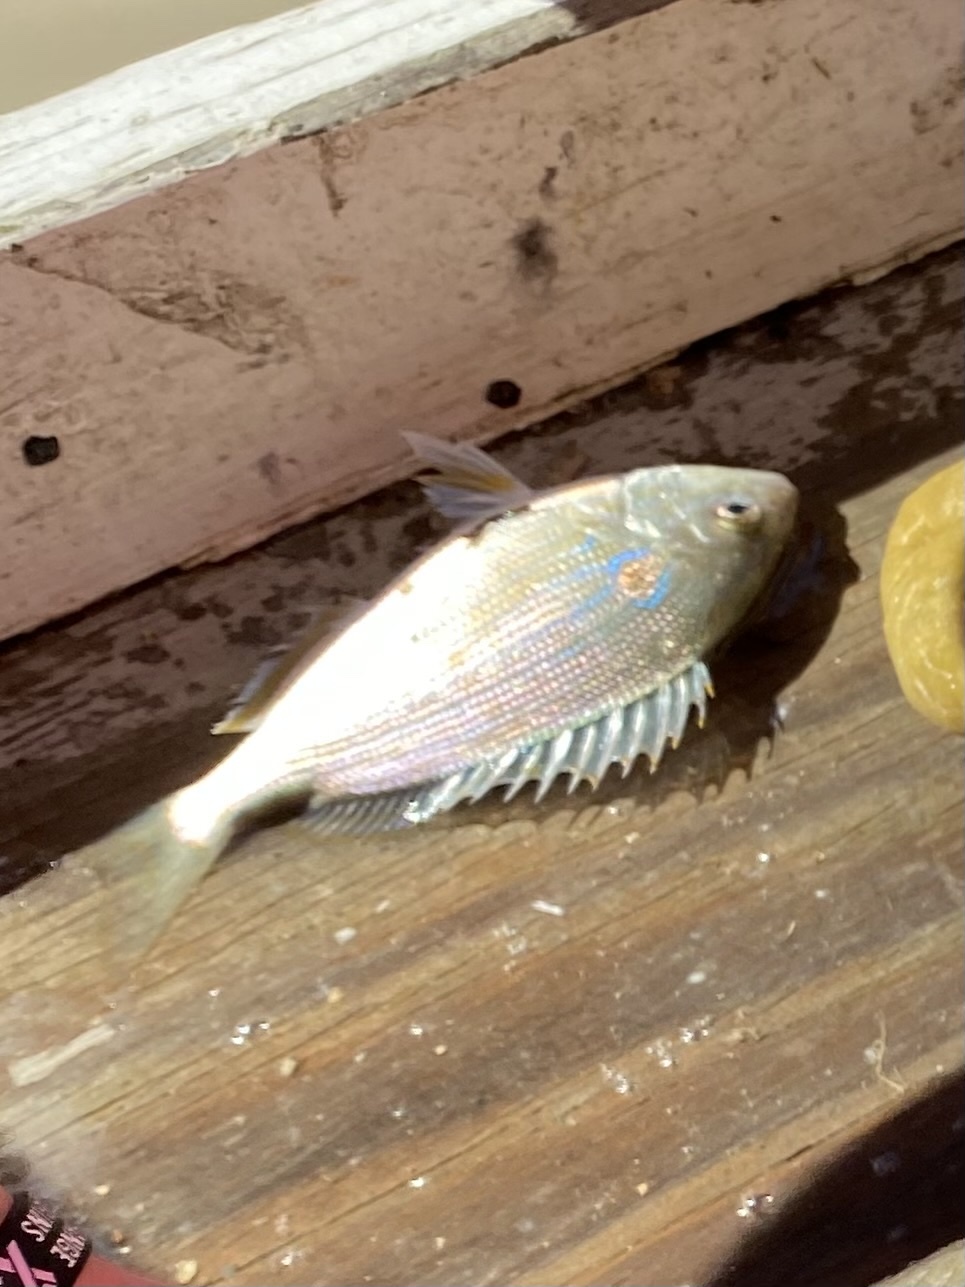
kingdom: Animalia
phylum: Chordata
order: Perciformes
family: Sparidae
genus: Lagodon
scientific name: Lagodon rhomboides
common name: Pinfish
